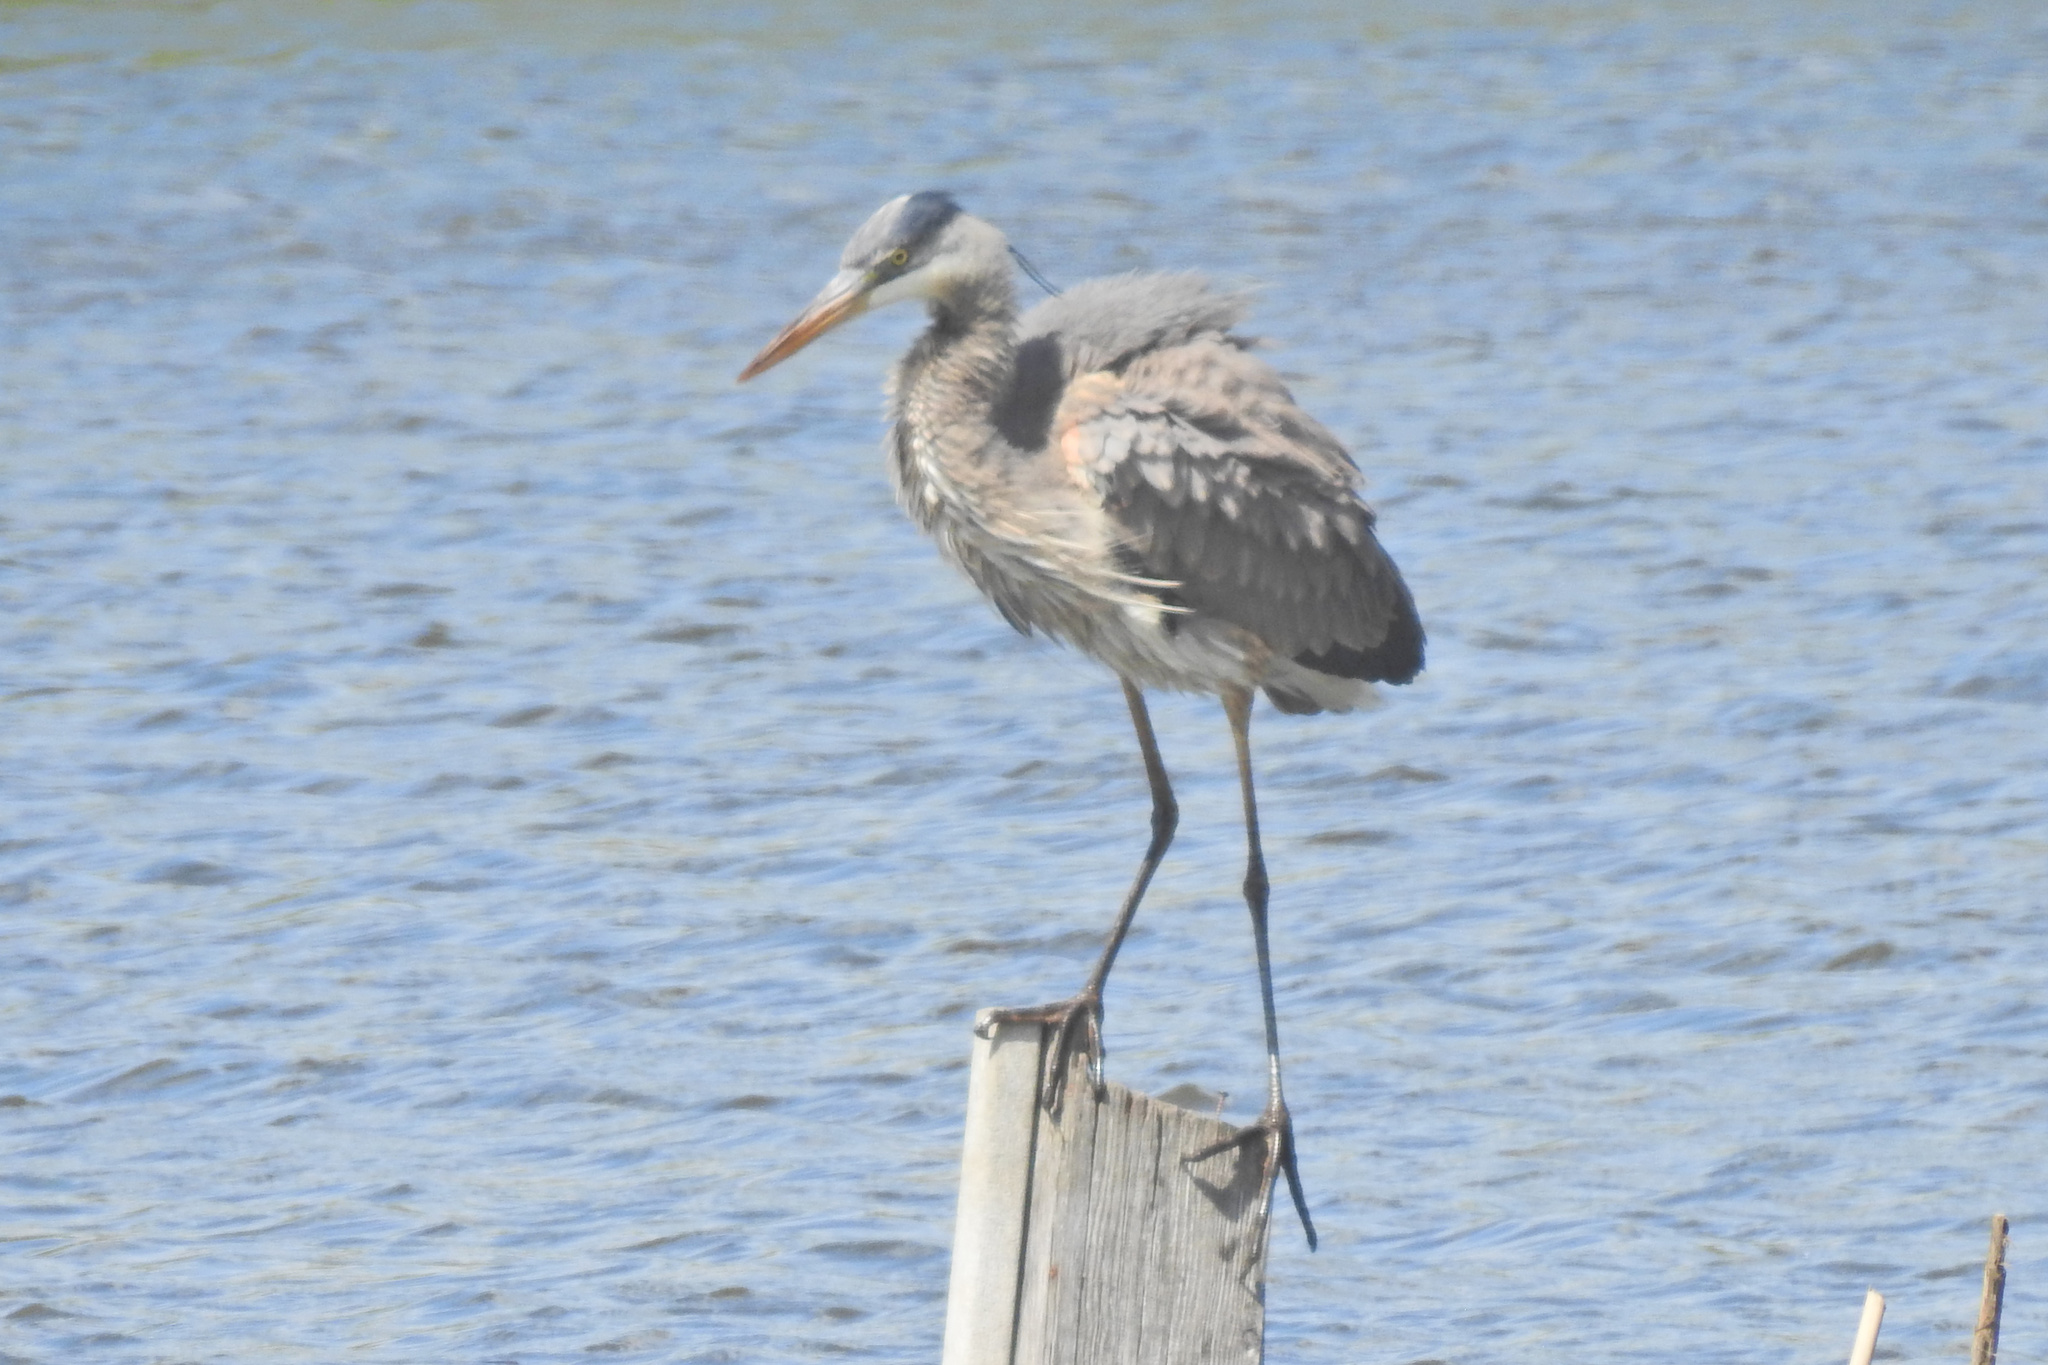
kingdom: Animalia
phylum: Chordata
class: Aves
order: Pelecaniformes
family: Ardeidae
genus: Ardea
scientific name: Ardea herodias
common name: Great blue heron
